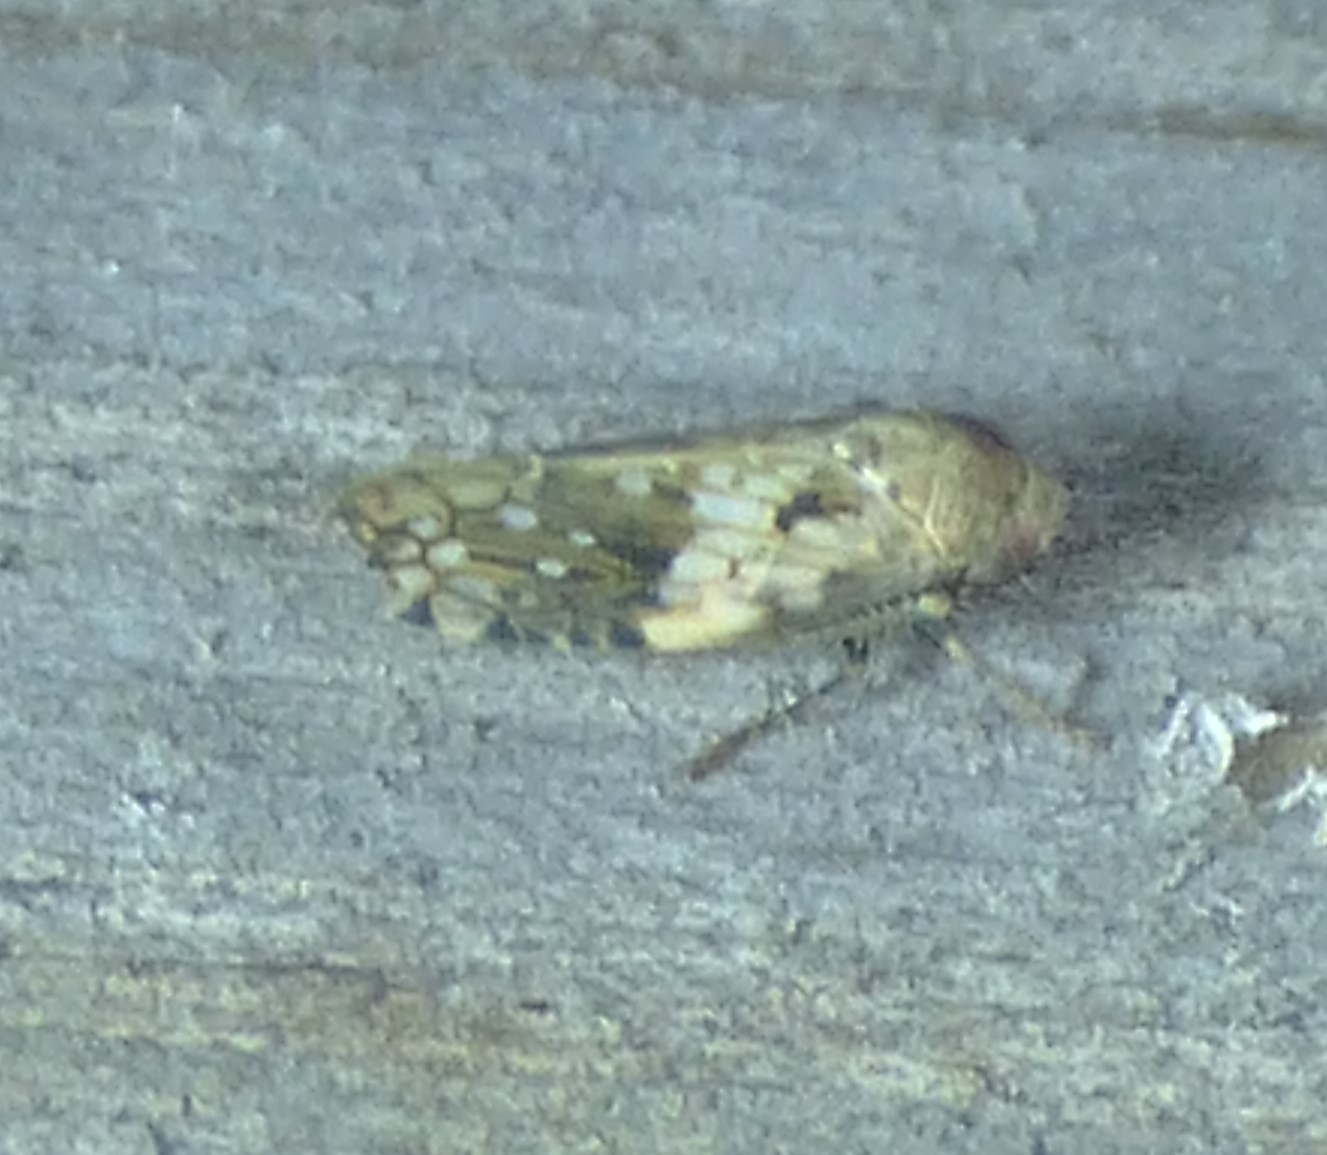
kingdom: Animalia
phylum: Arthropoda
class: Insecta
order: Hemiptera
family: Cicadellidae
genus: Menosoma
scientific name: Menosoma cinctum
